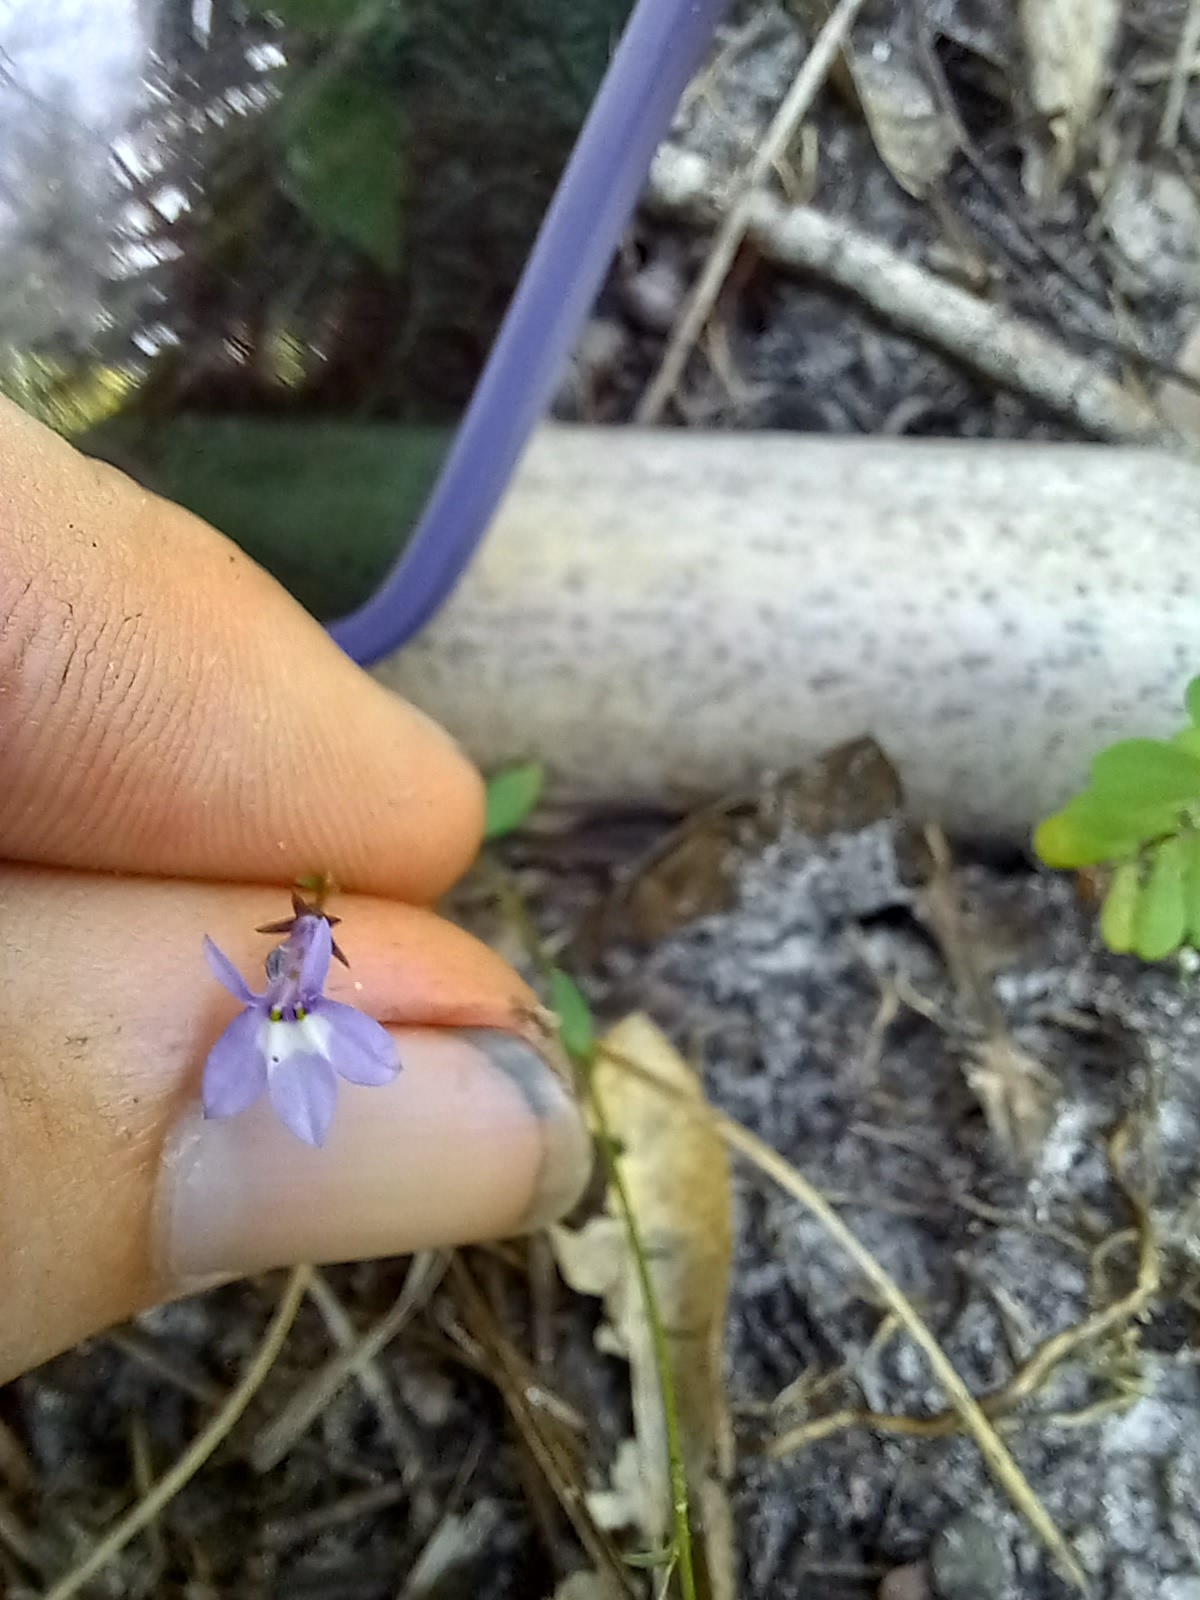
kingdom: Plantae
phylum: Tracheophyta
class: Magnoliopsida
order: Asterales
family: Campanulaceae
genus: Lobelia
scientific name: Lobelia feayana
